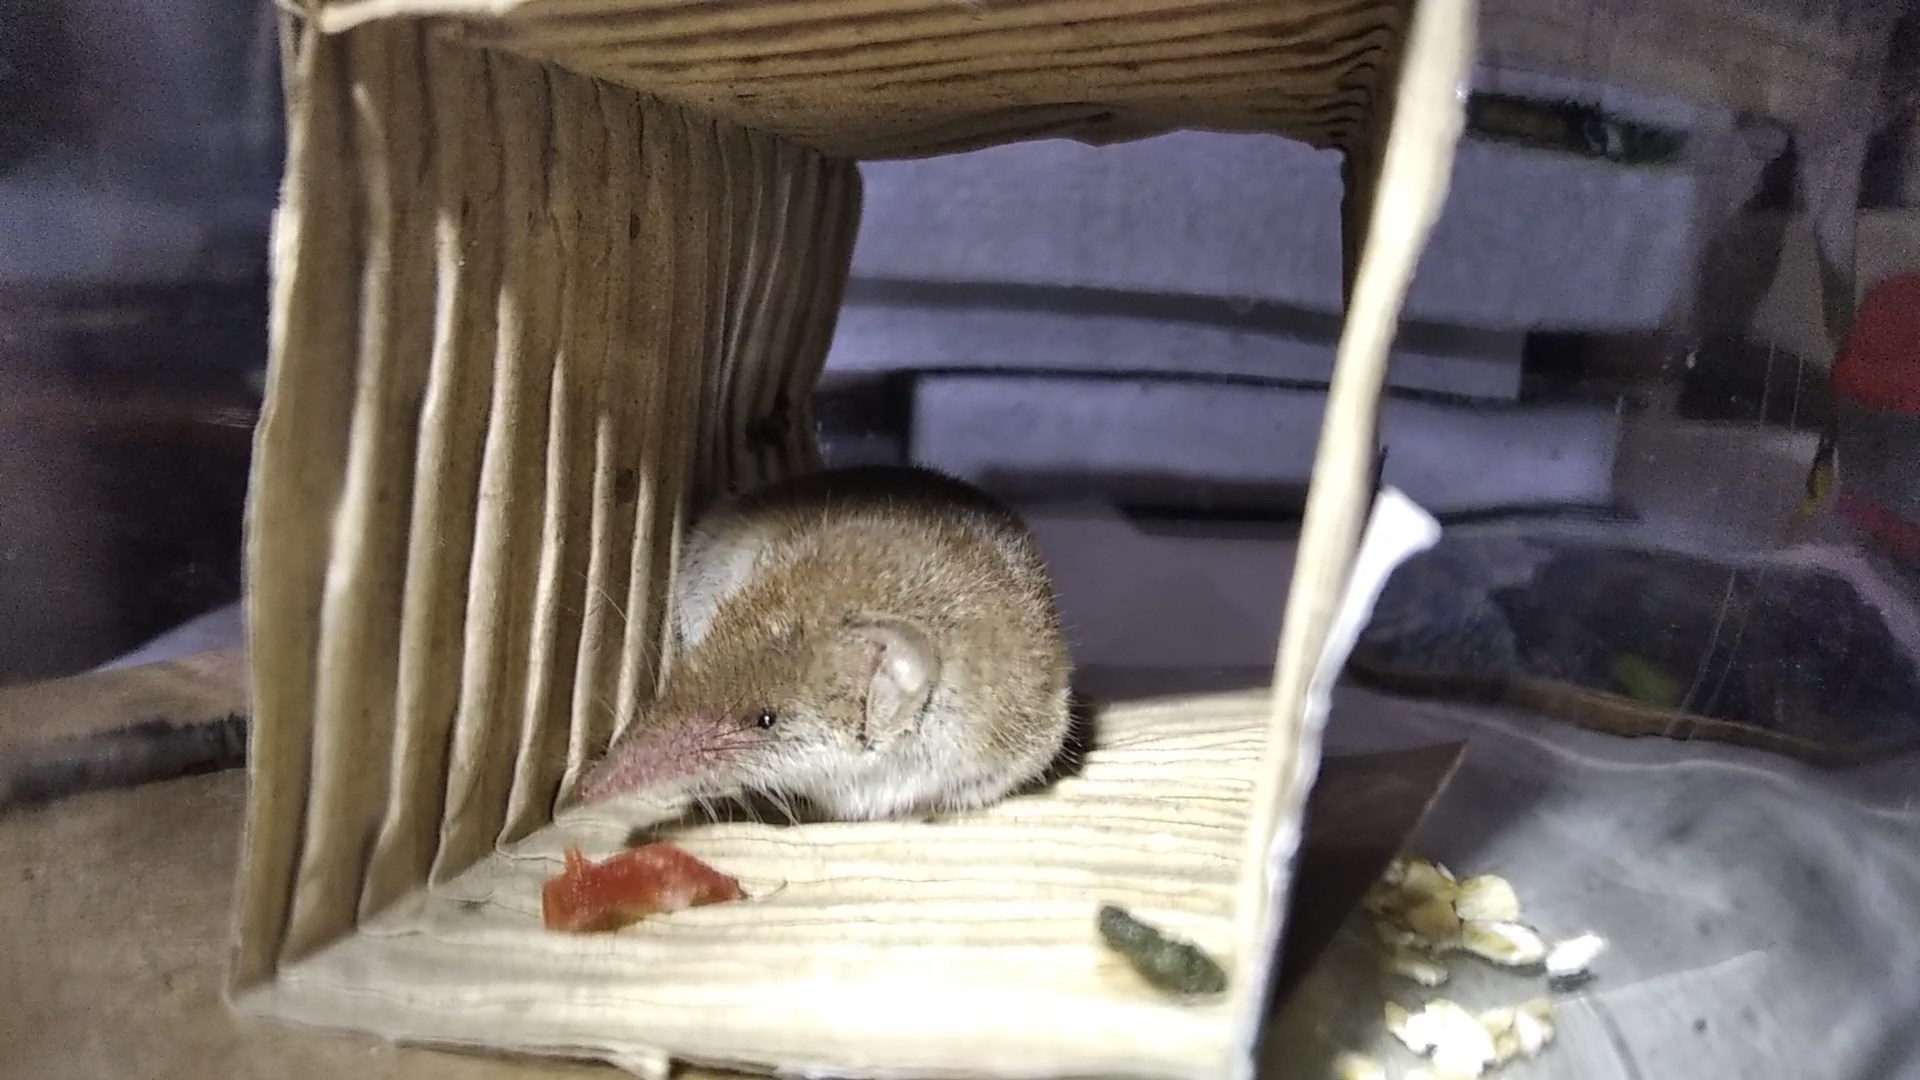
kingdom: Animalia
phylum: Chordata
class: Mammalia
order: Soricomorpha
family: Soricidae
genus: Crocidura
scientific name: Crocidura suaveolens
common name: Lesser white-toothed shrew
